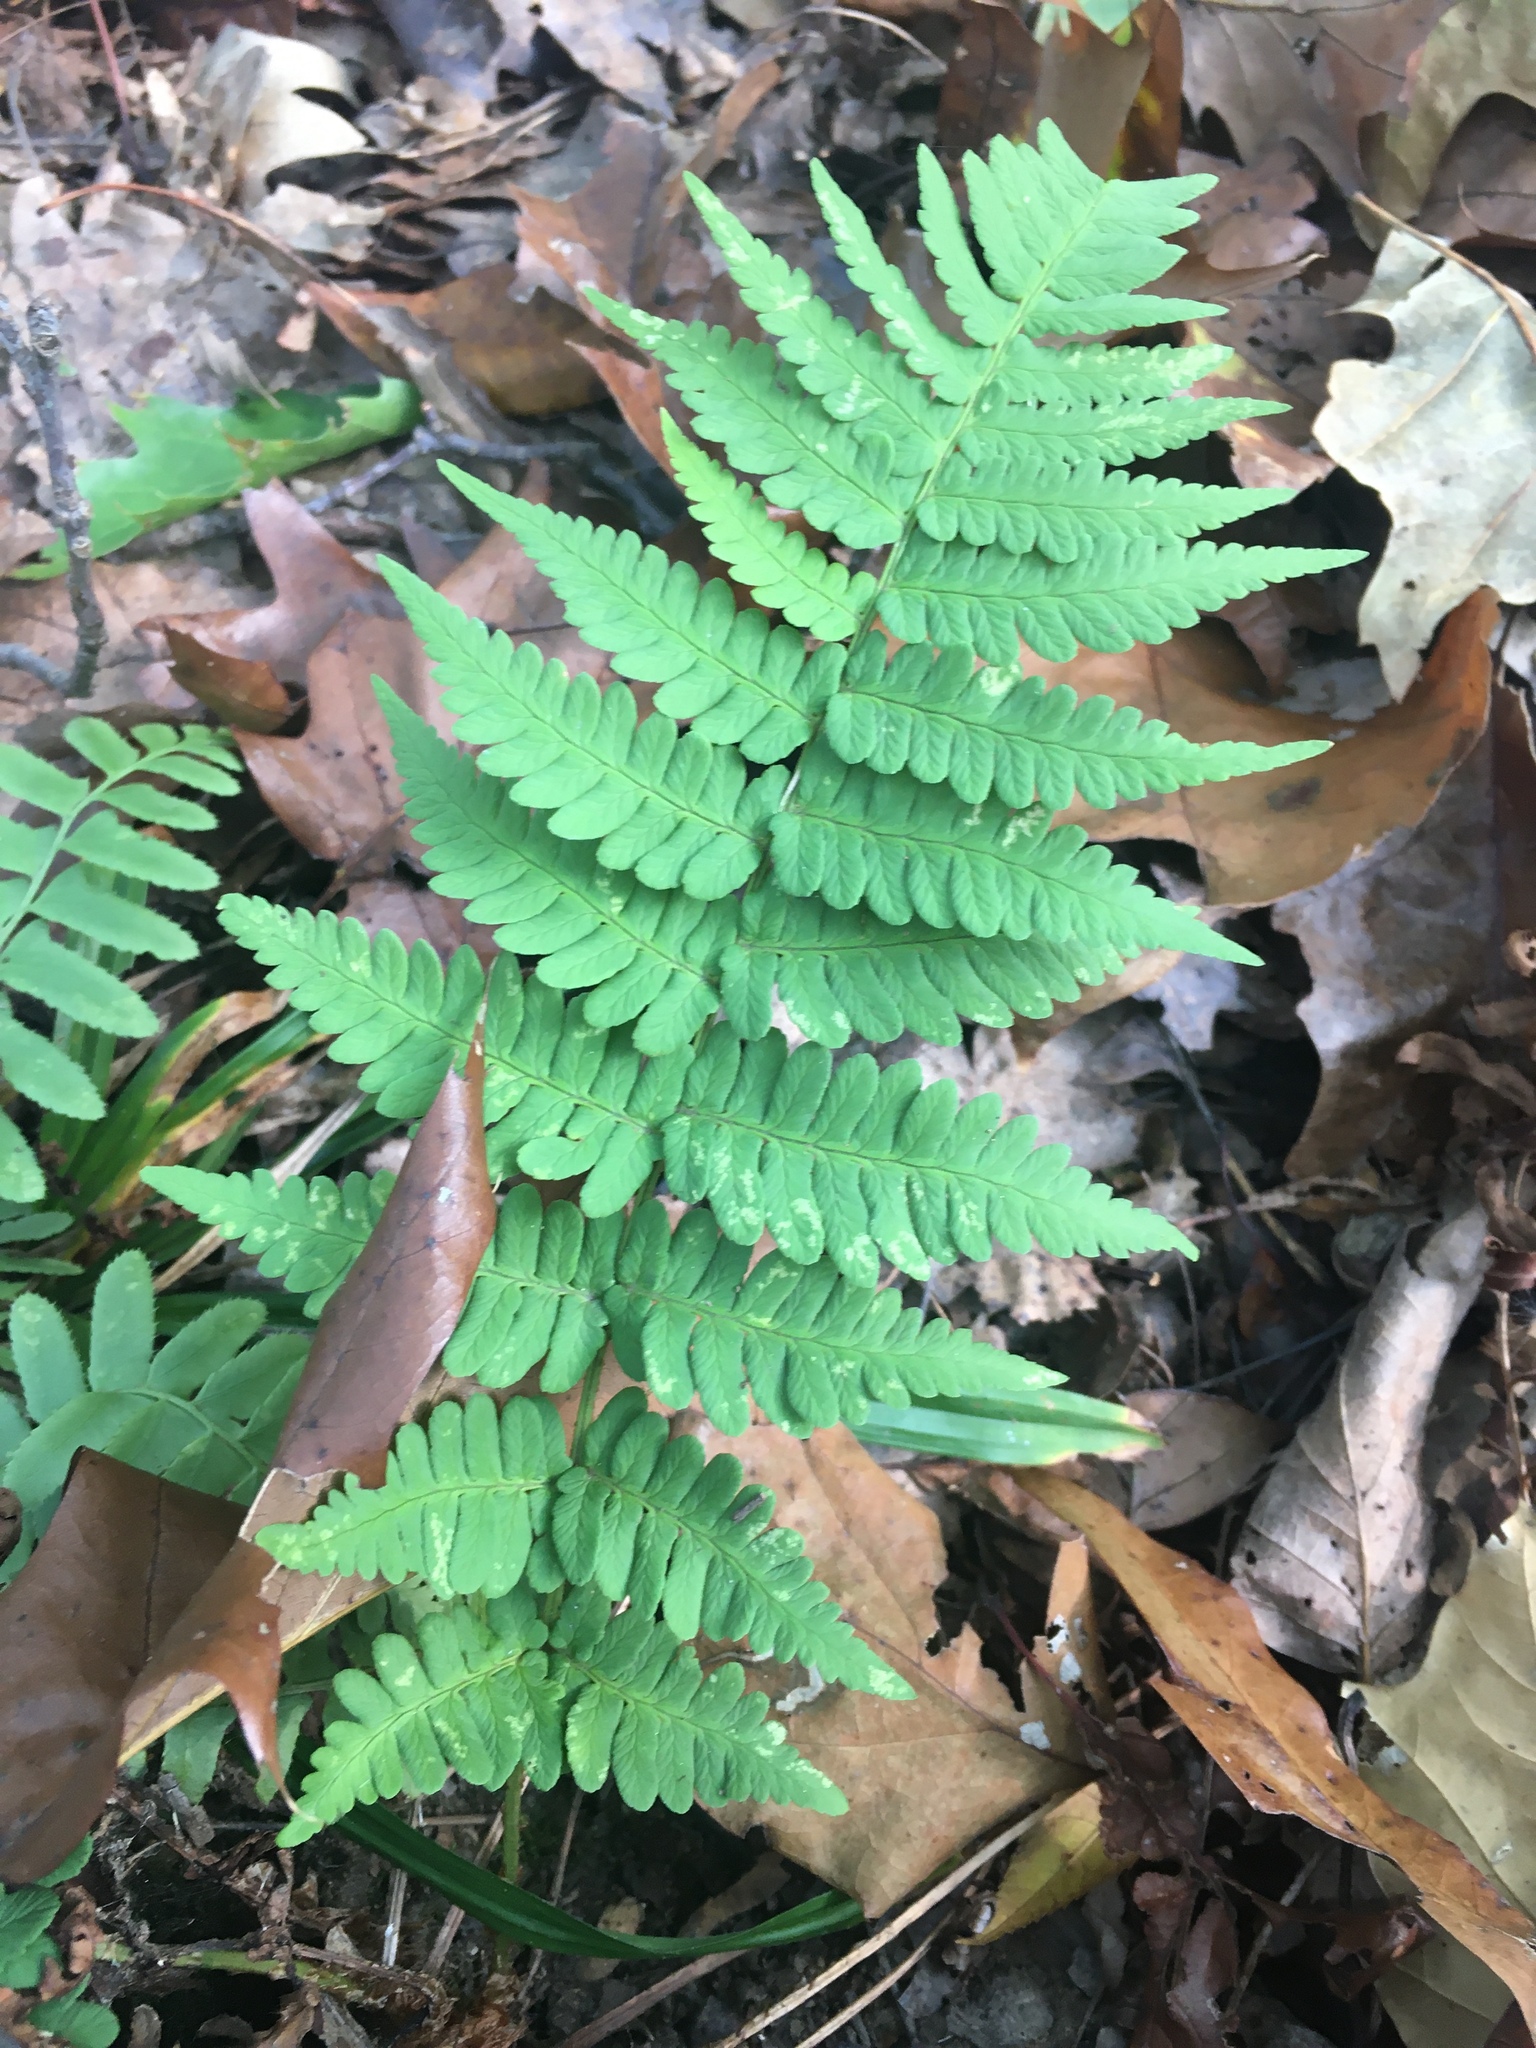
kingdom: Plantae
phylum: Tracheophyta
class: Polypodiopsida
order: Polypodiales
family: Dryopteridaceae
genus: Dryopteris
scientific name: Dryopteris marginalis
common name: Marginal wood fern
